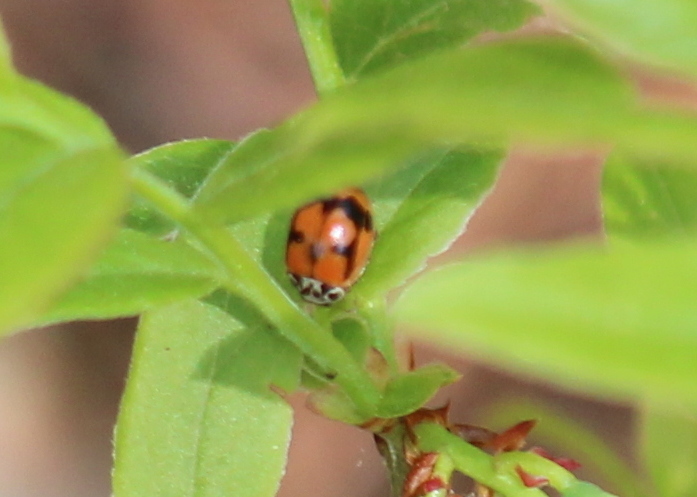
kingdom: Animalia
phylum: Arthropoda
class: Insecta
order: Coleoptera
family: Coccinellidae
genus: Mulsantina
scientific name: Mulsantina picta
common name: Painted ladybird
